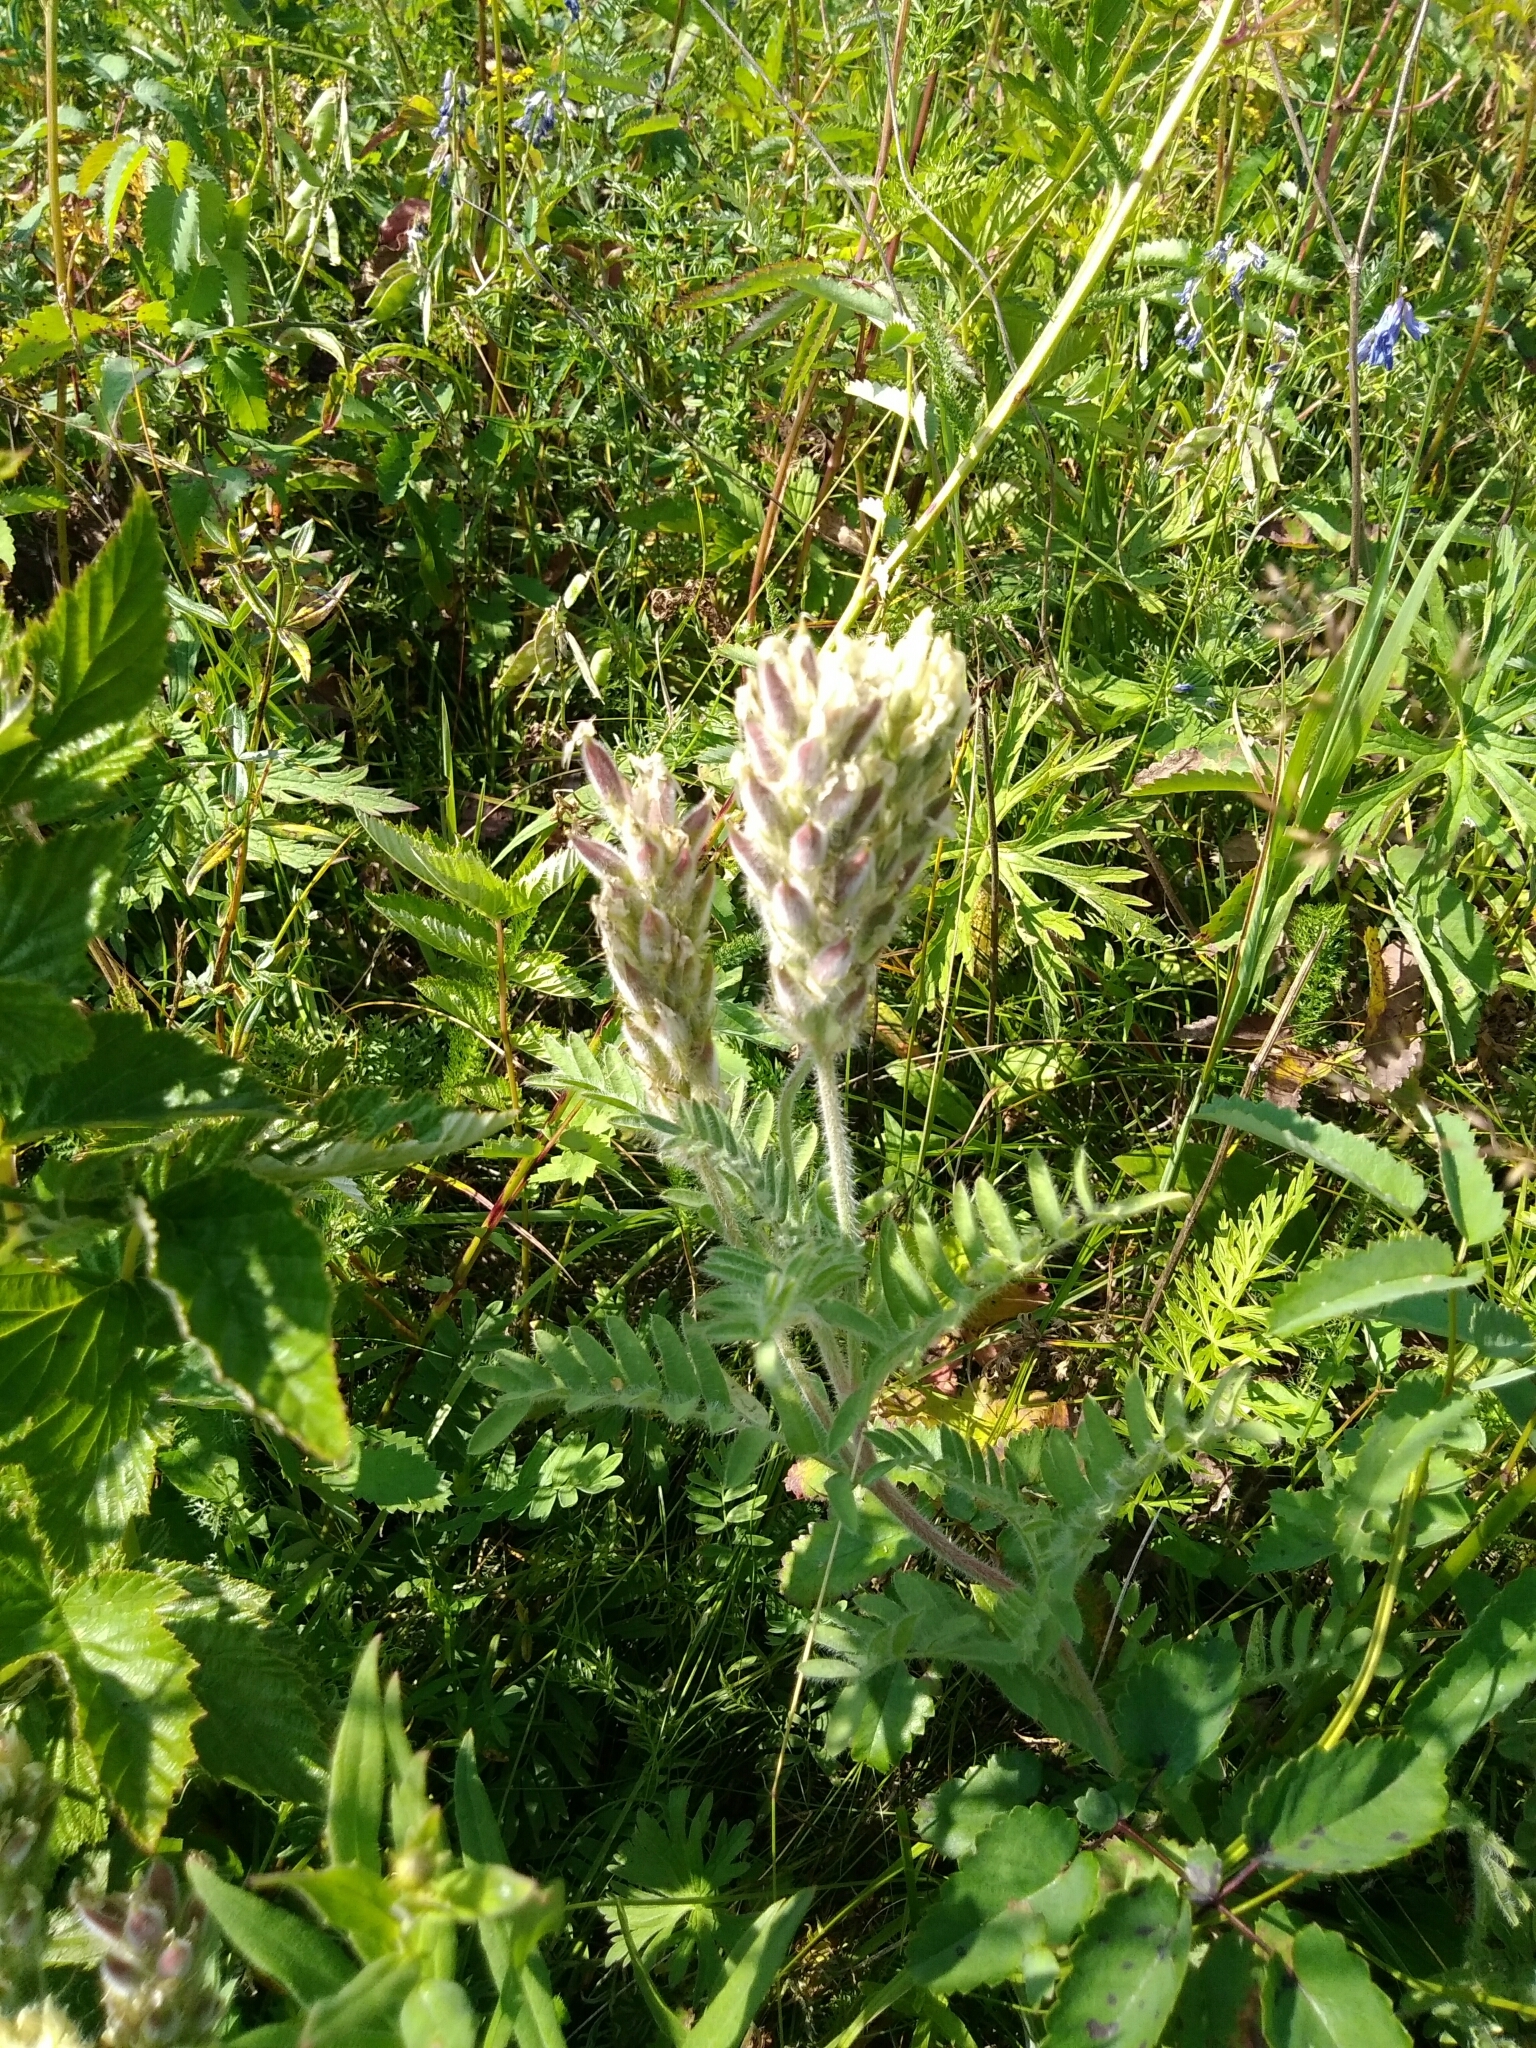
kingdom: Plantae
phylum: Tracheophyta
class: Magnoliopsida
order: Fabales
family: Fabaceae
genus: Oxytropis
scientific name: Oxytropis pilosa
